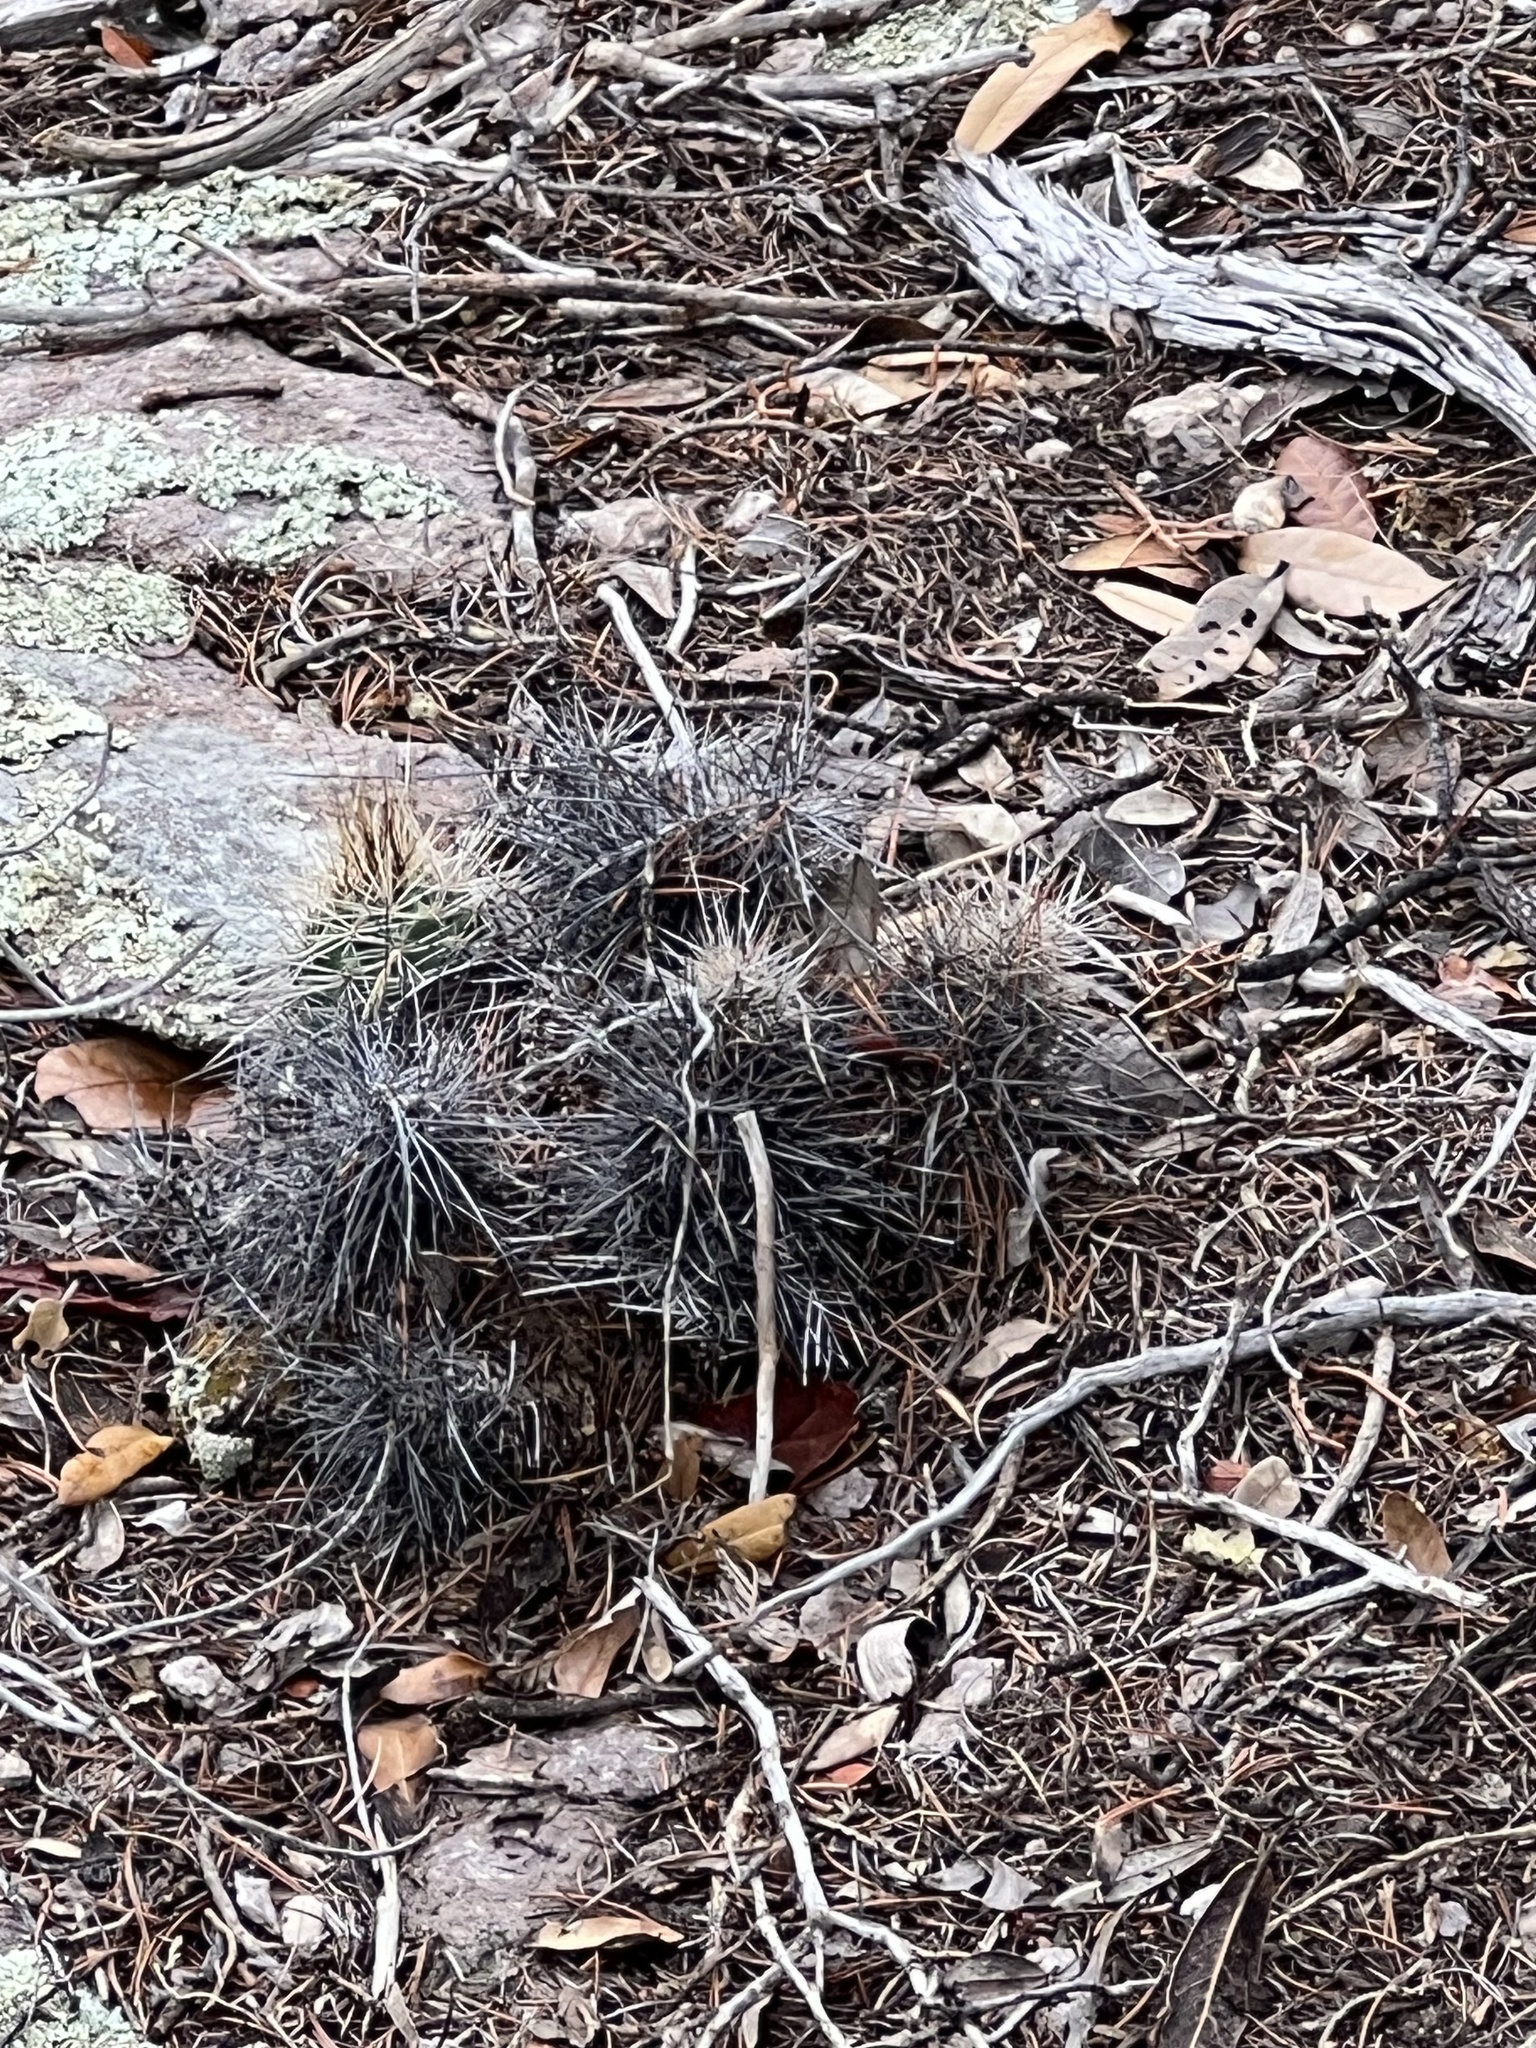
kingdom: Plantae
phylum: Tracheophyta
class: Magnoliopsida
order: Caryophyllales
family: Cactaceae
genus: Echinocereus
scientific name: Echinocereus coccineus
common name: Scarlet hedgehog cactus
